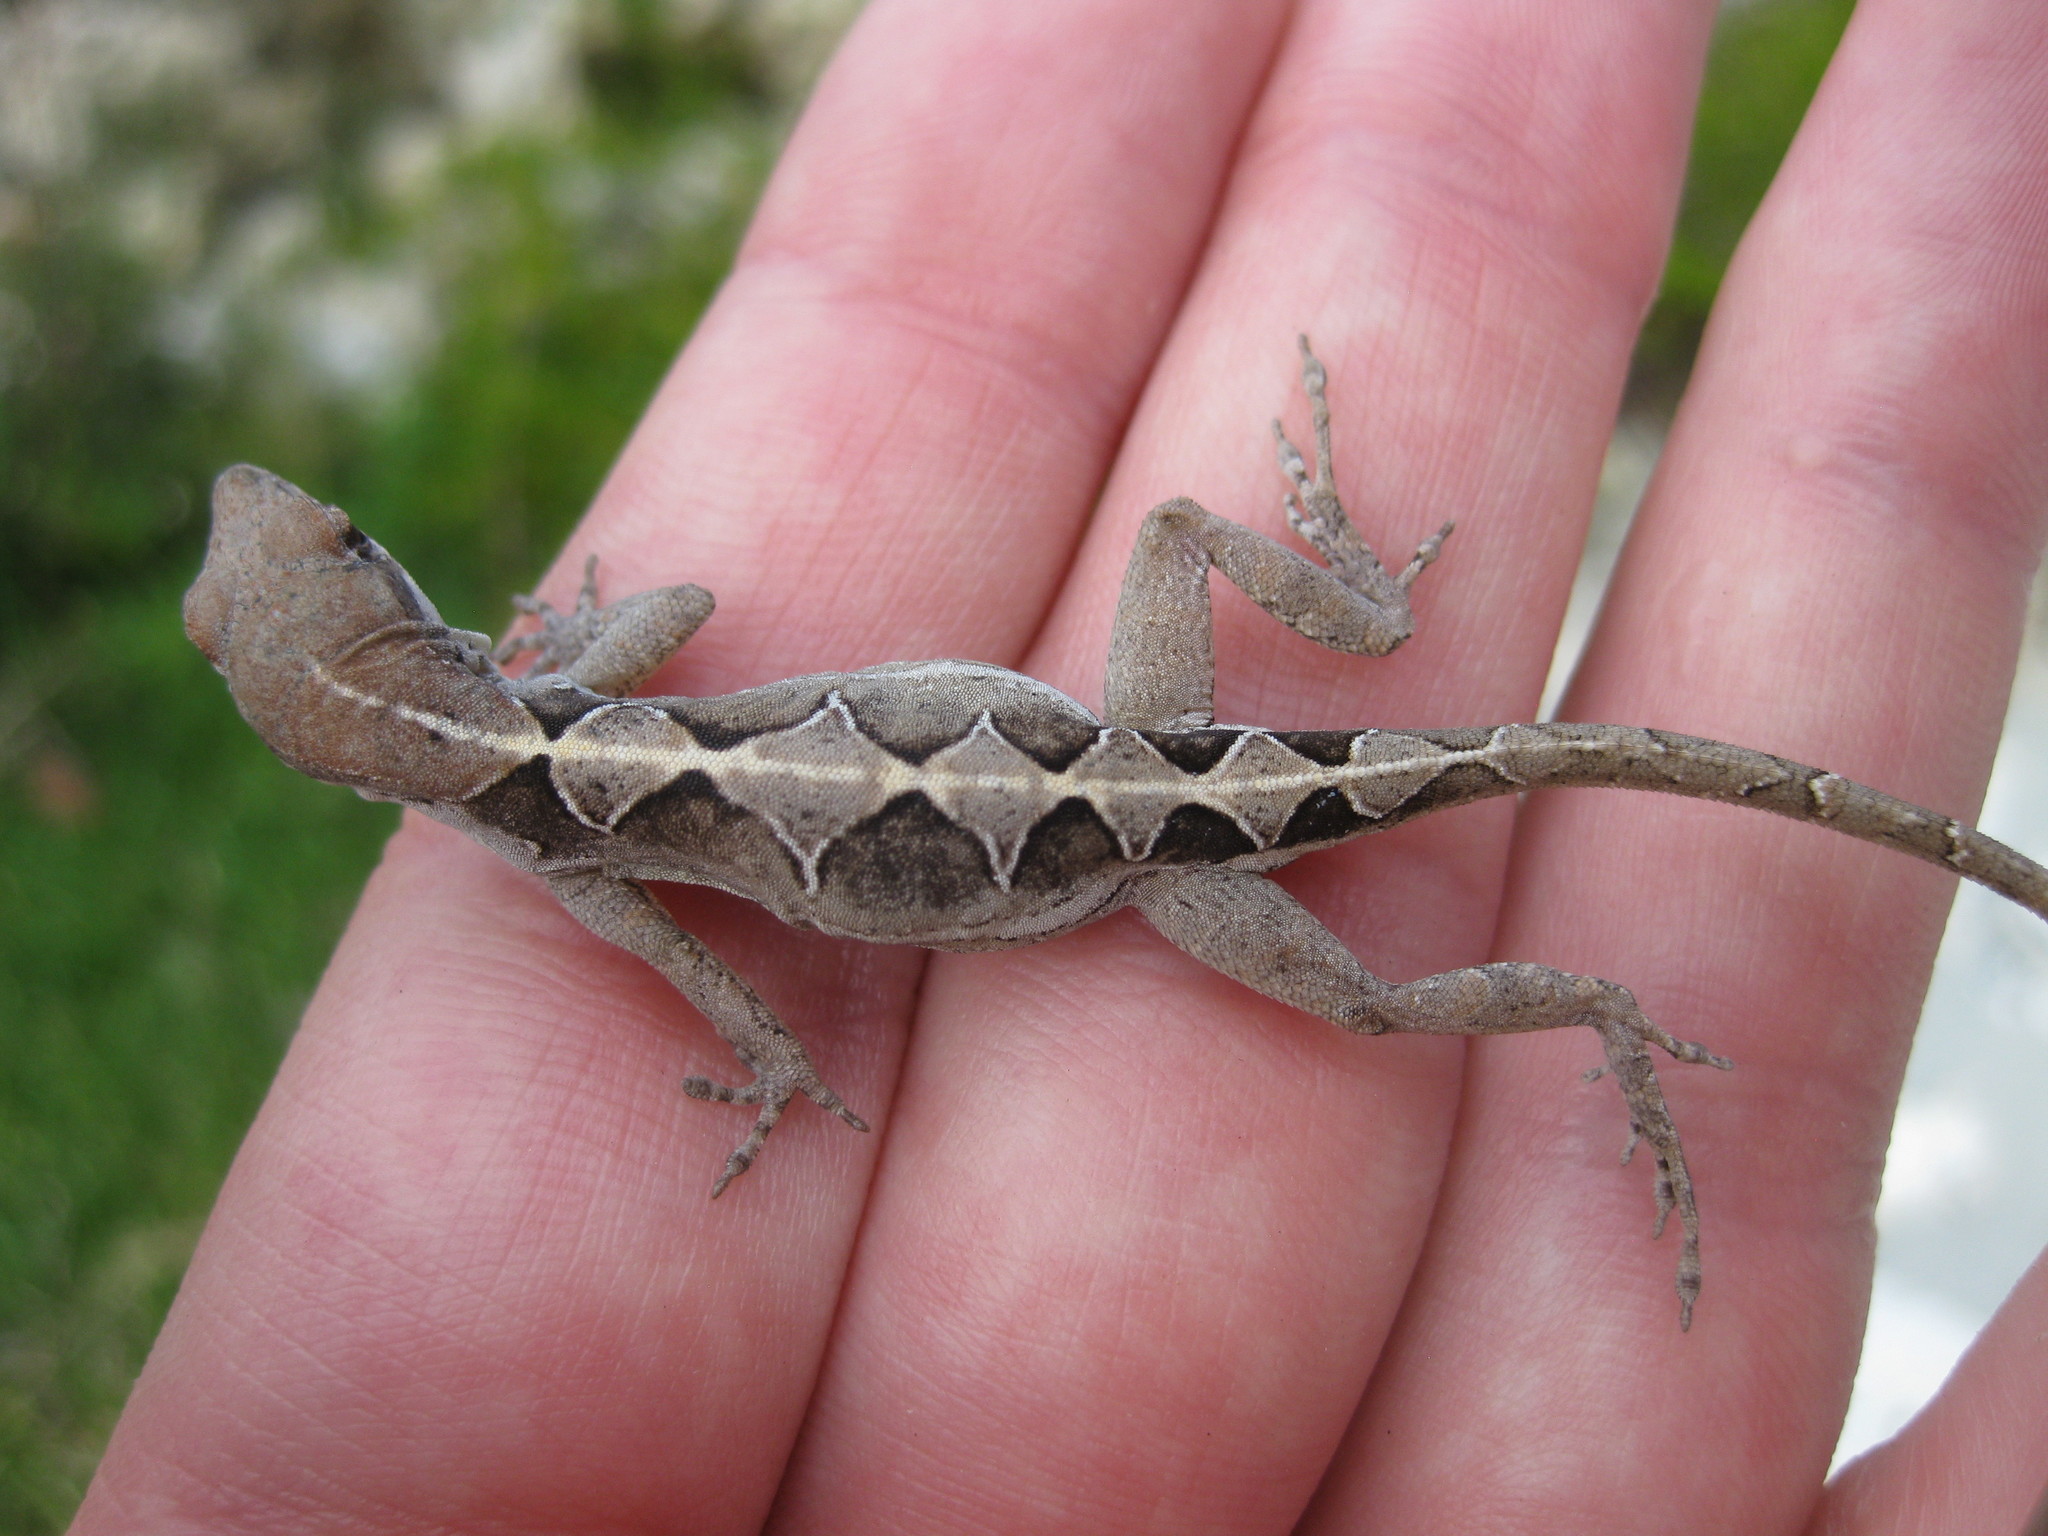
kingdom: Animalia
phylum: Chordata
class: Squamata
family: Dactyloidae
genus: Anolis
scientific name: Anolis sagrei
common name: Brown anole
